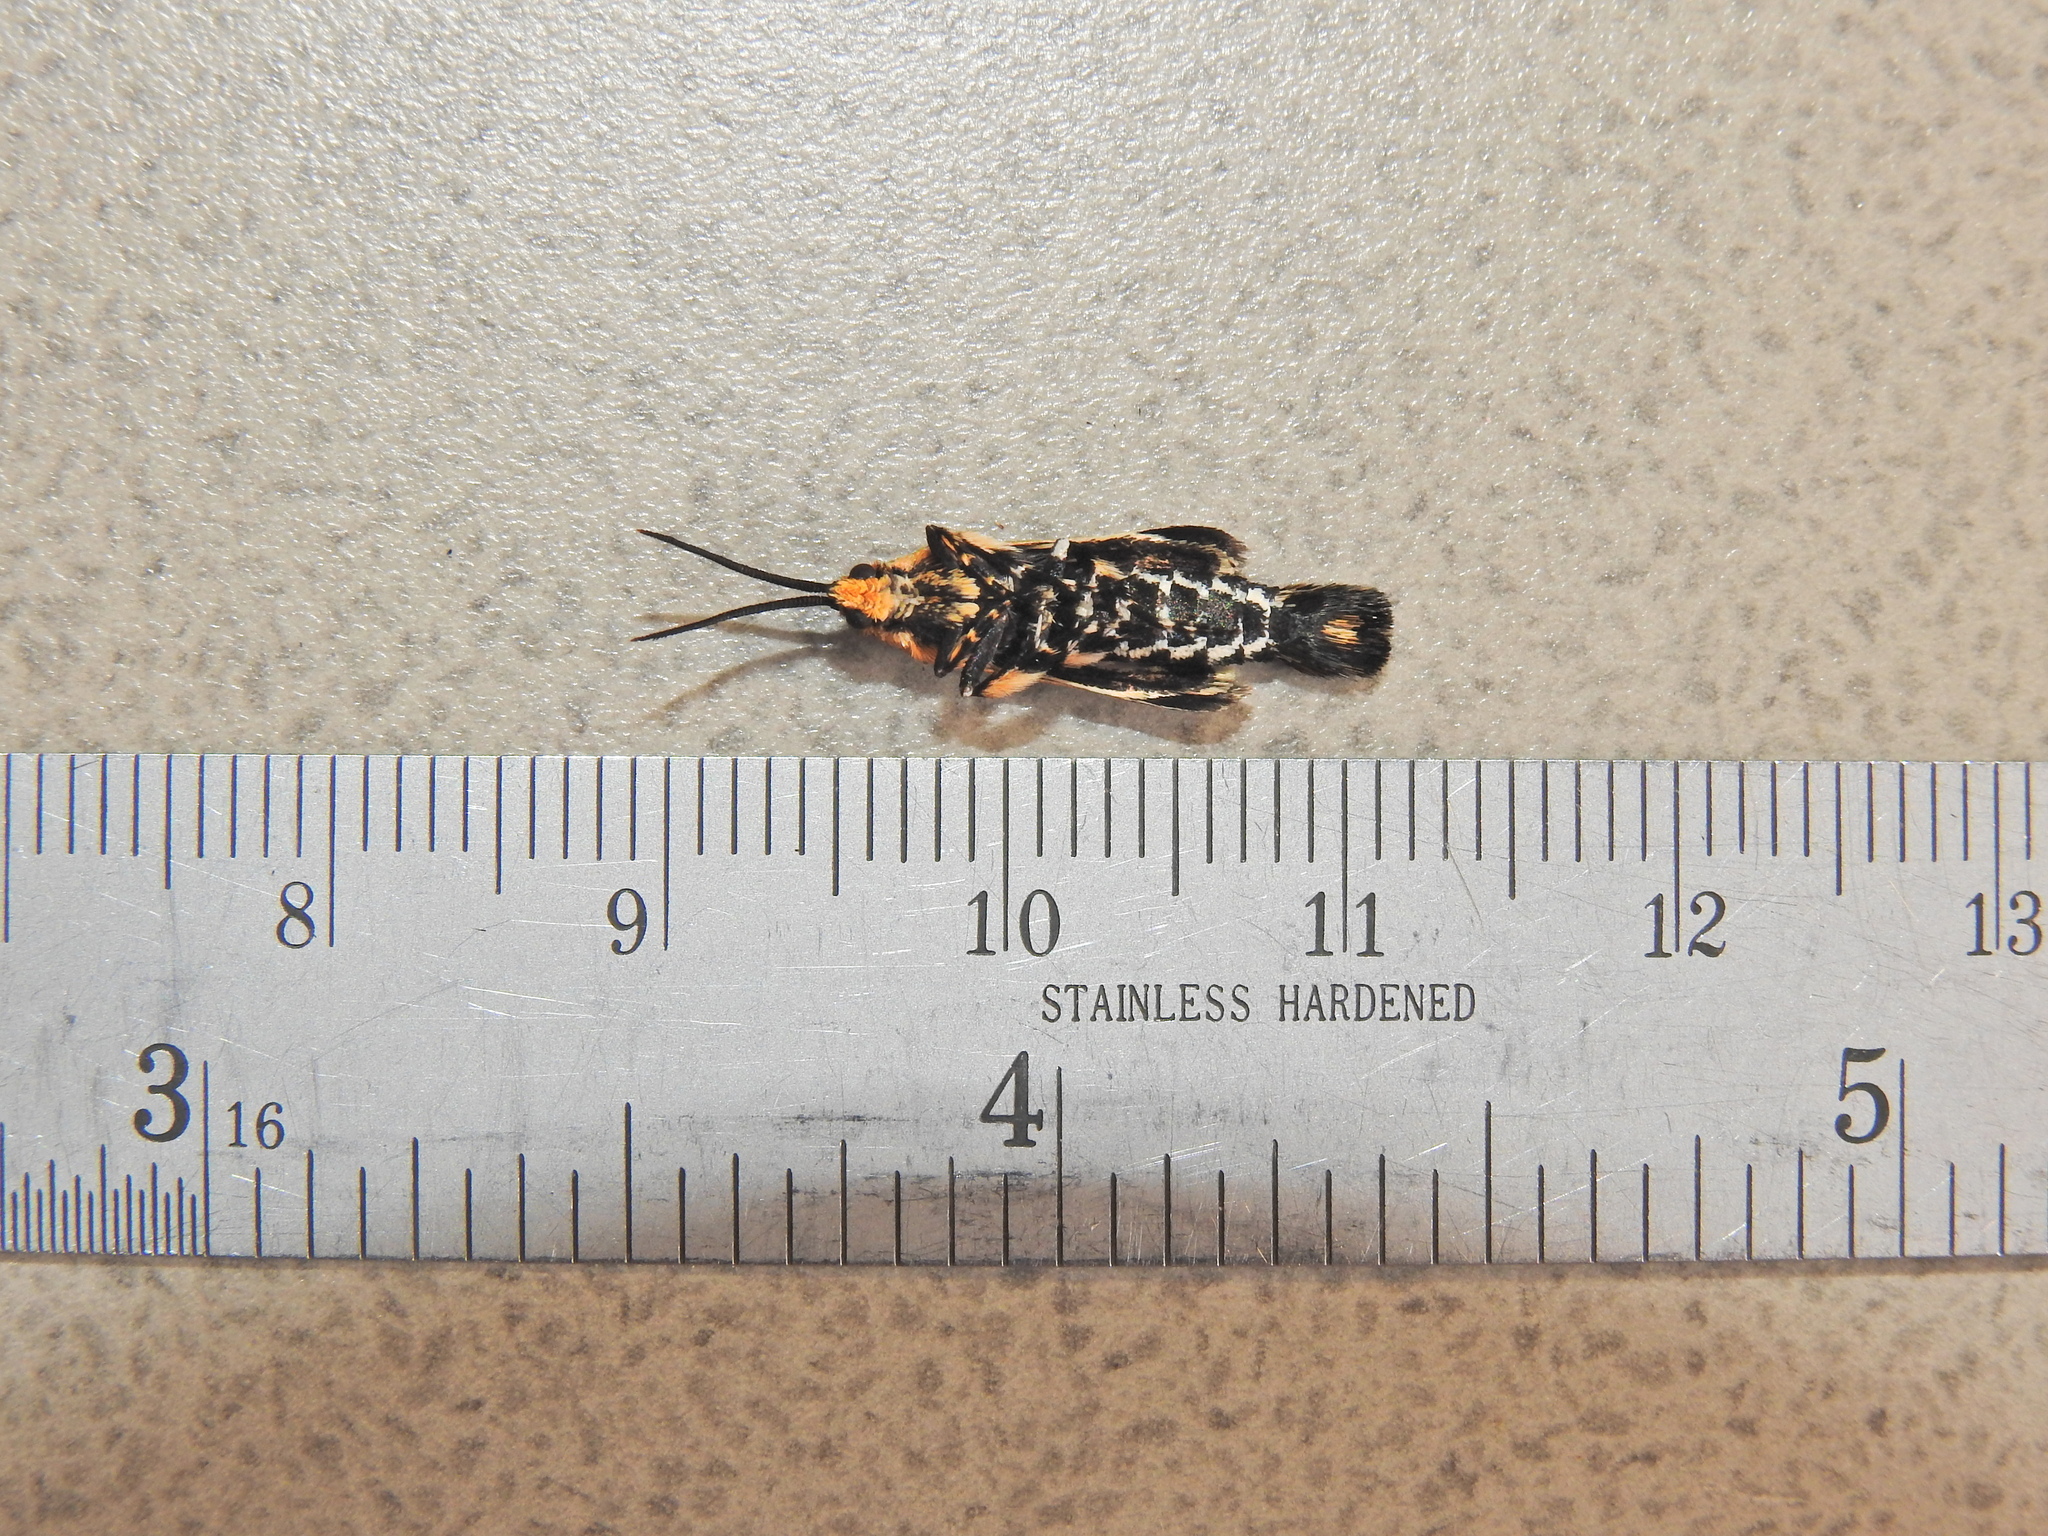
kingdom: Animalia
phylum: Arthropoda
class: Insecta
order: Lepidoptera
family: Brachodidae
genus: Miscera
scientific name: Miscera homotona
